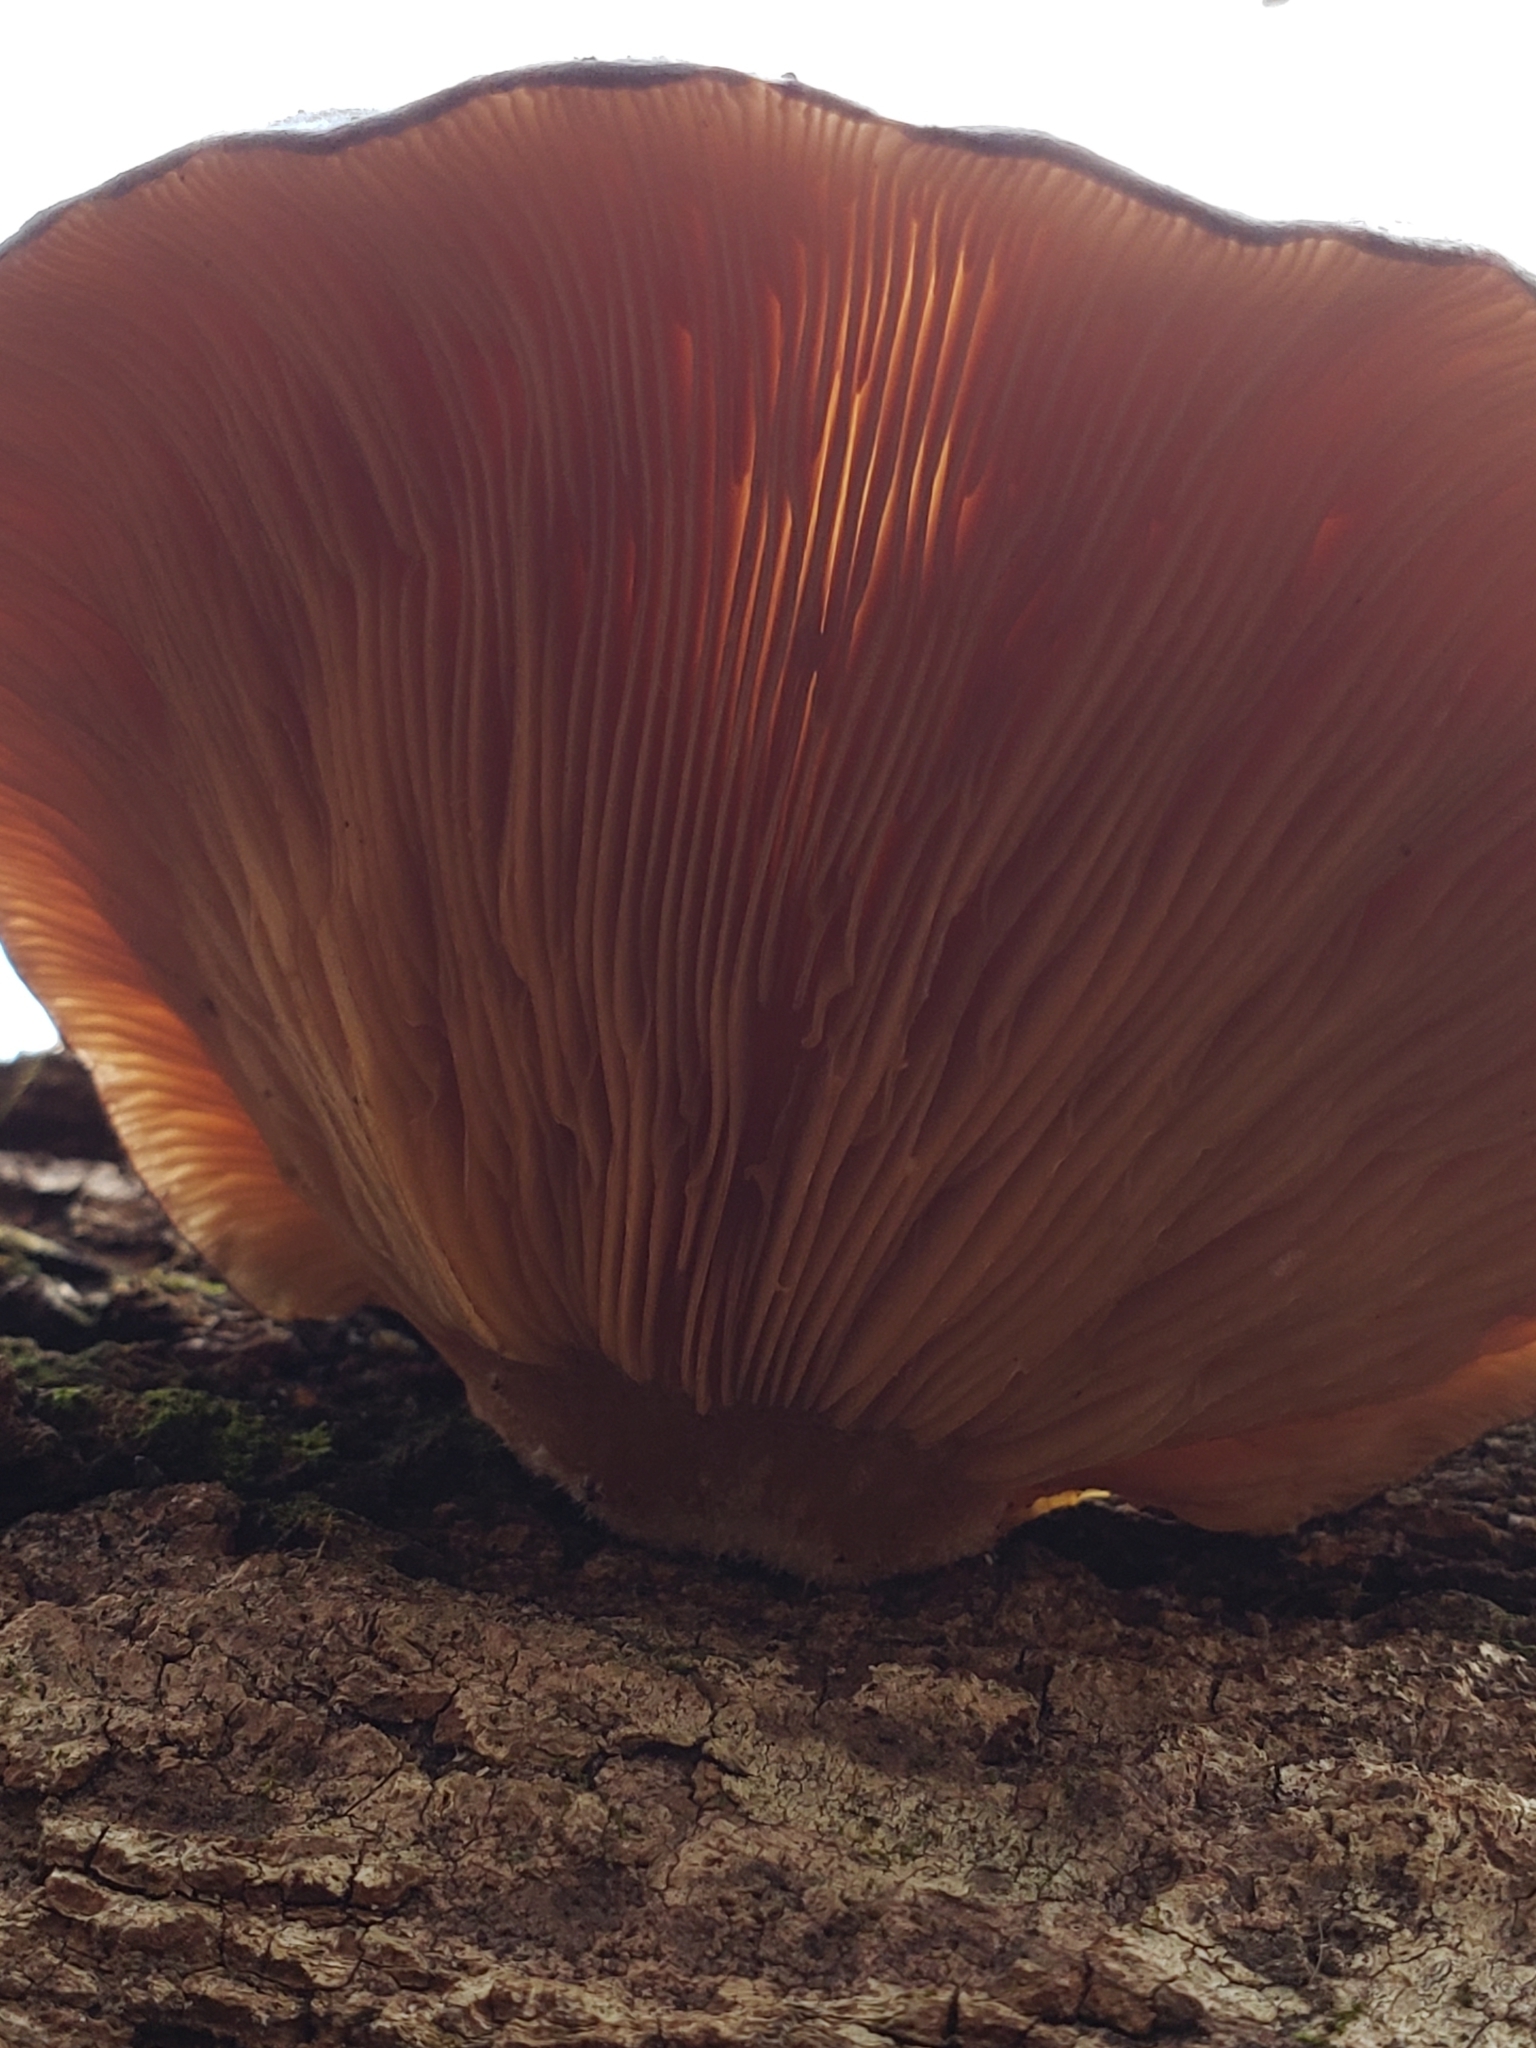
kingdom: Fungi
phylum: Basidiomycota
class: Agaricomycetes
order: Agaricales
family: Sarcomyxaceae
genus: Sarcomyxa
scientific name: Sarcomyxa serotina
